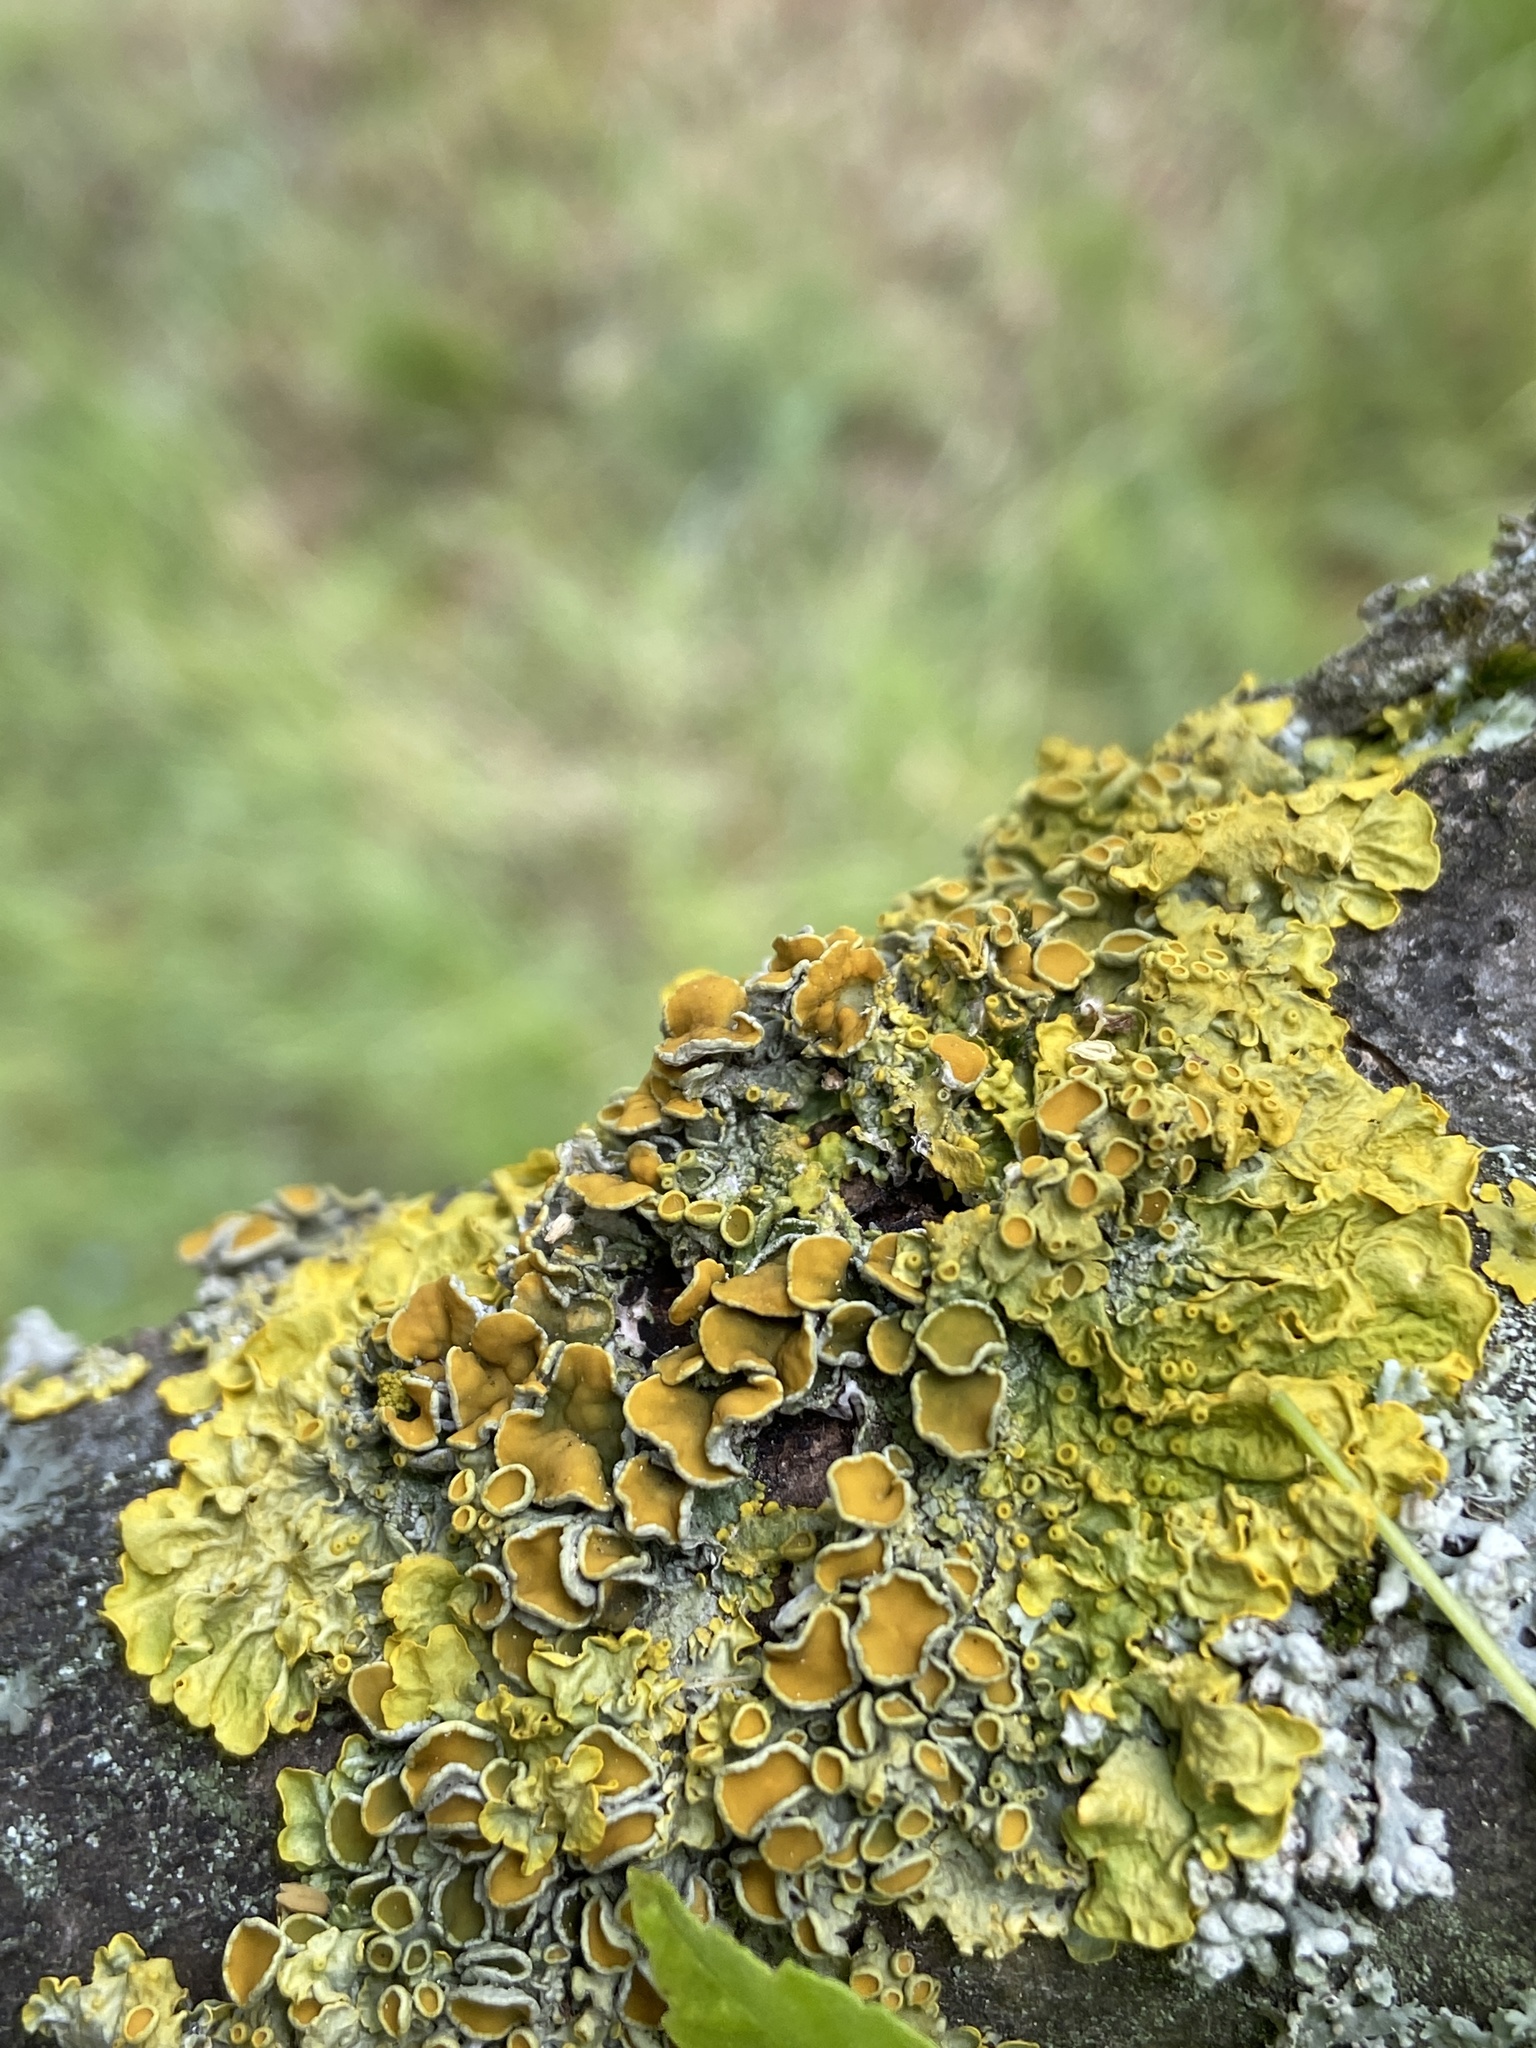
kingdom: Fungi
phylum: Ascomycota
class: Lecanoromycetes
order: Teloschistales
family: Teloschistaceae
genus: Xanthoria
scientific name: Xanthoria parietina
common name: Common orange lichen
